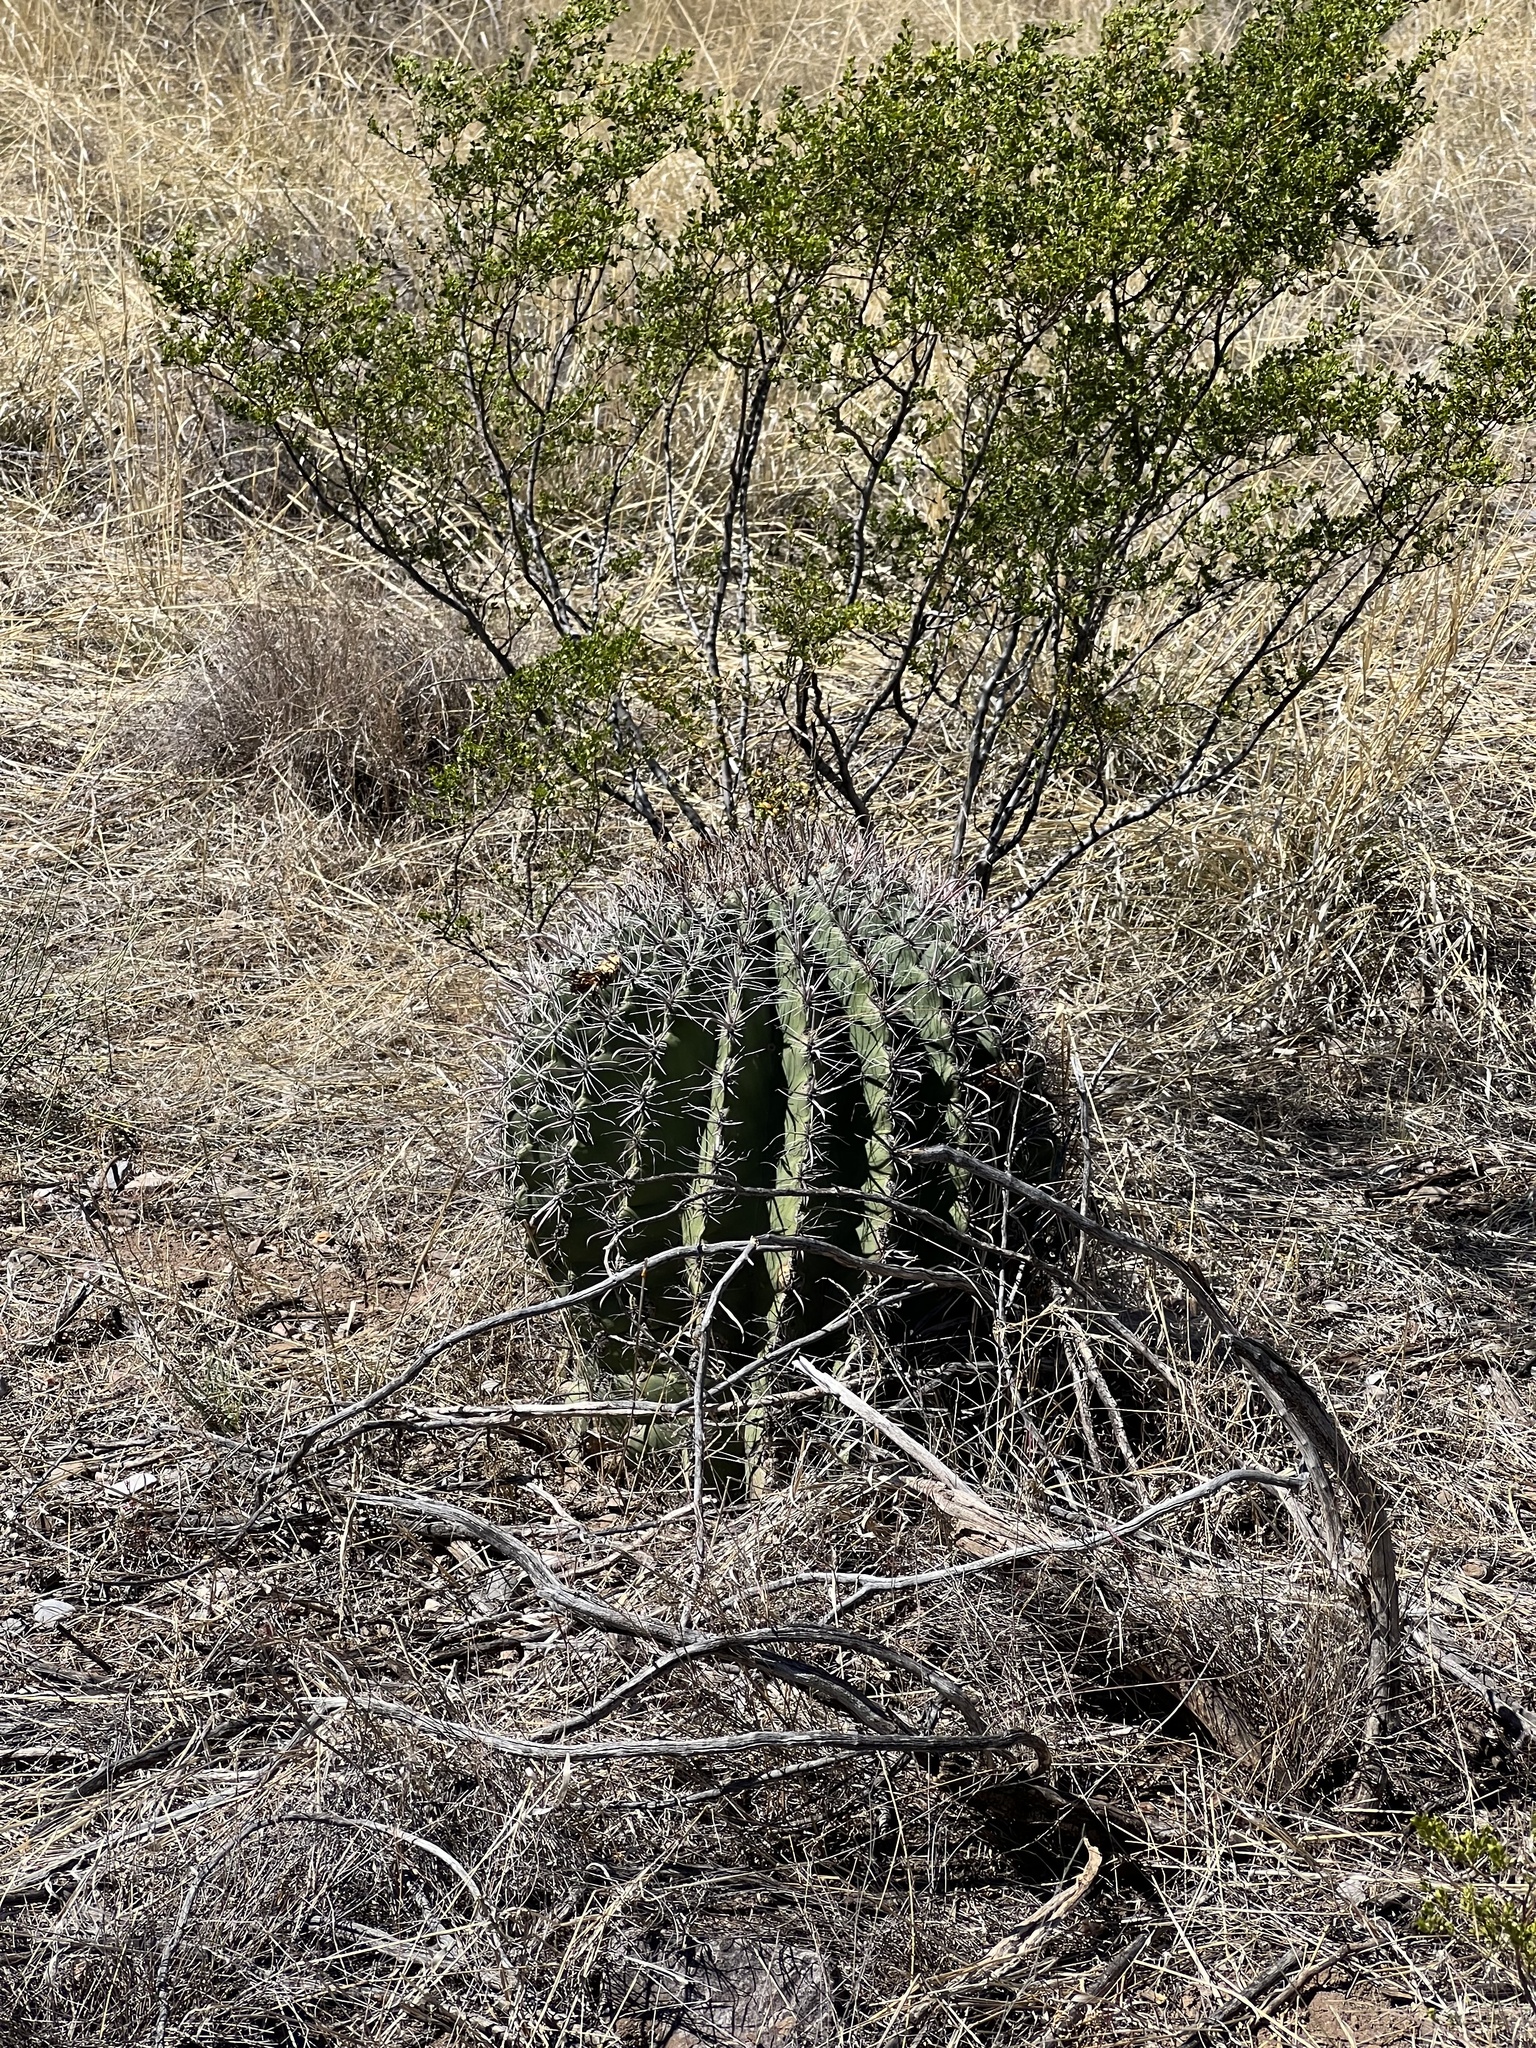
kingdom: Plantae
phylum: Tracheophyta
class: Magnoliopsida
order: Caryophyllales
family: Cactaceae
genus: Ferocactus
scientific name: Ferocactus wislizeni
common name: Candy barrel cactus
